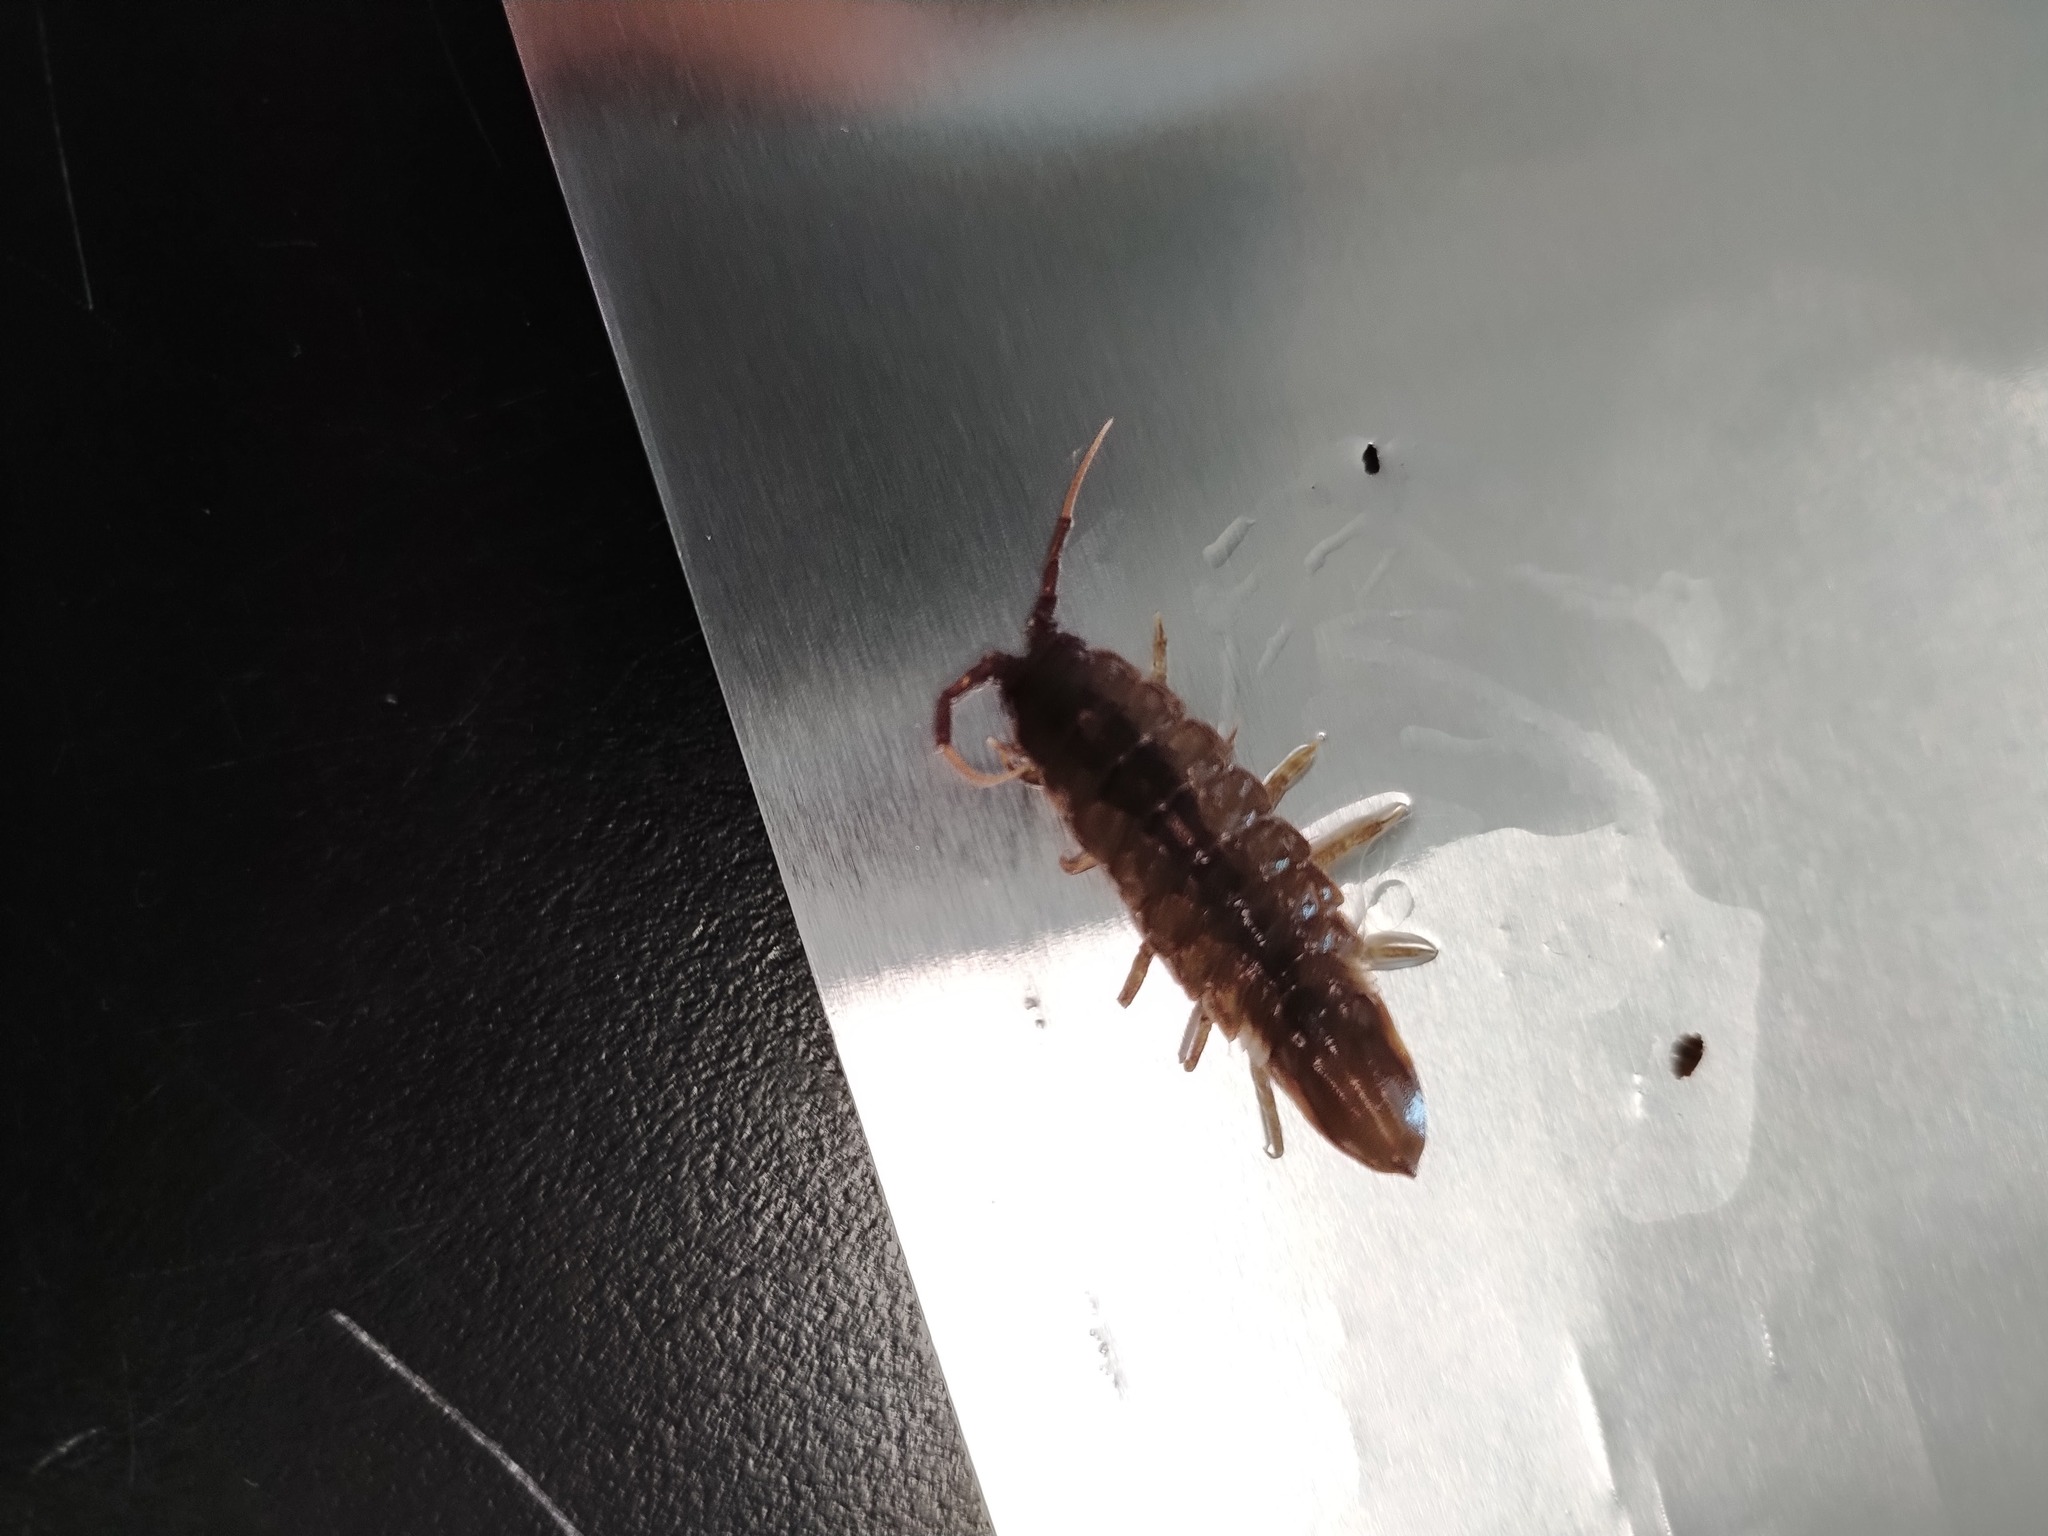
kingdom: Animalia
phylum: Arthropoda
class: Malacostraca
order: Isopoda
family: Idoteidae
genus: Idotea
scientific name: Idotea phosphorea
